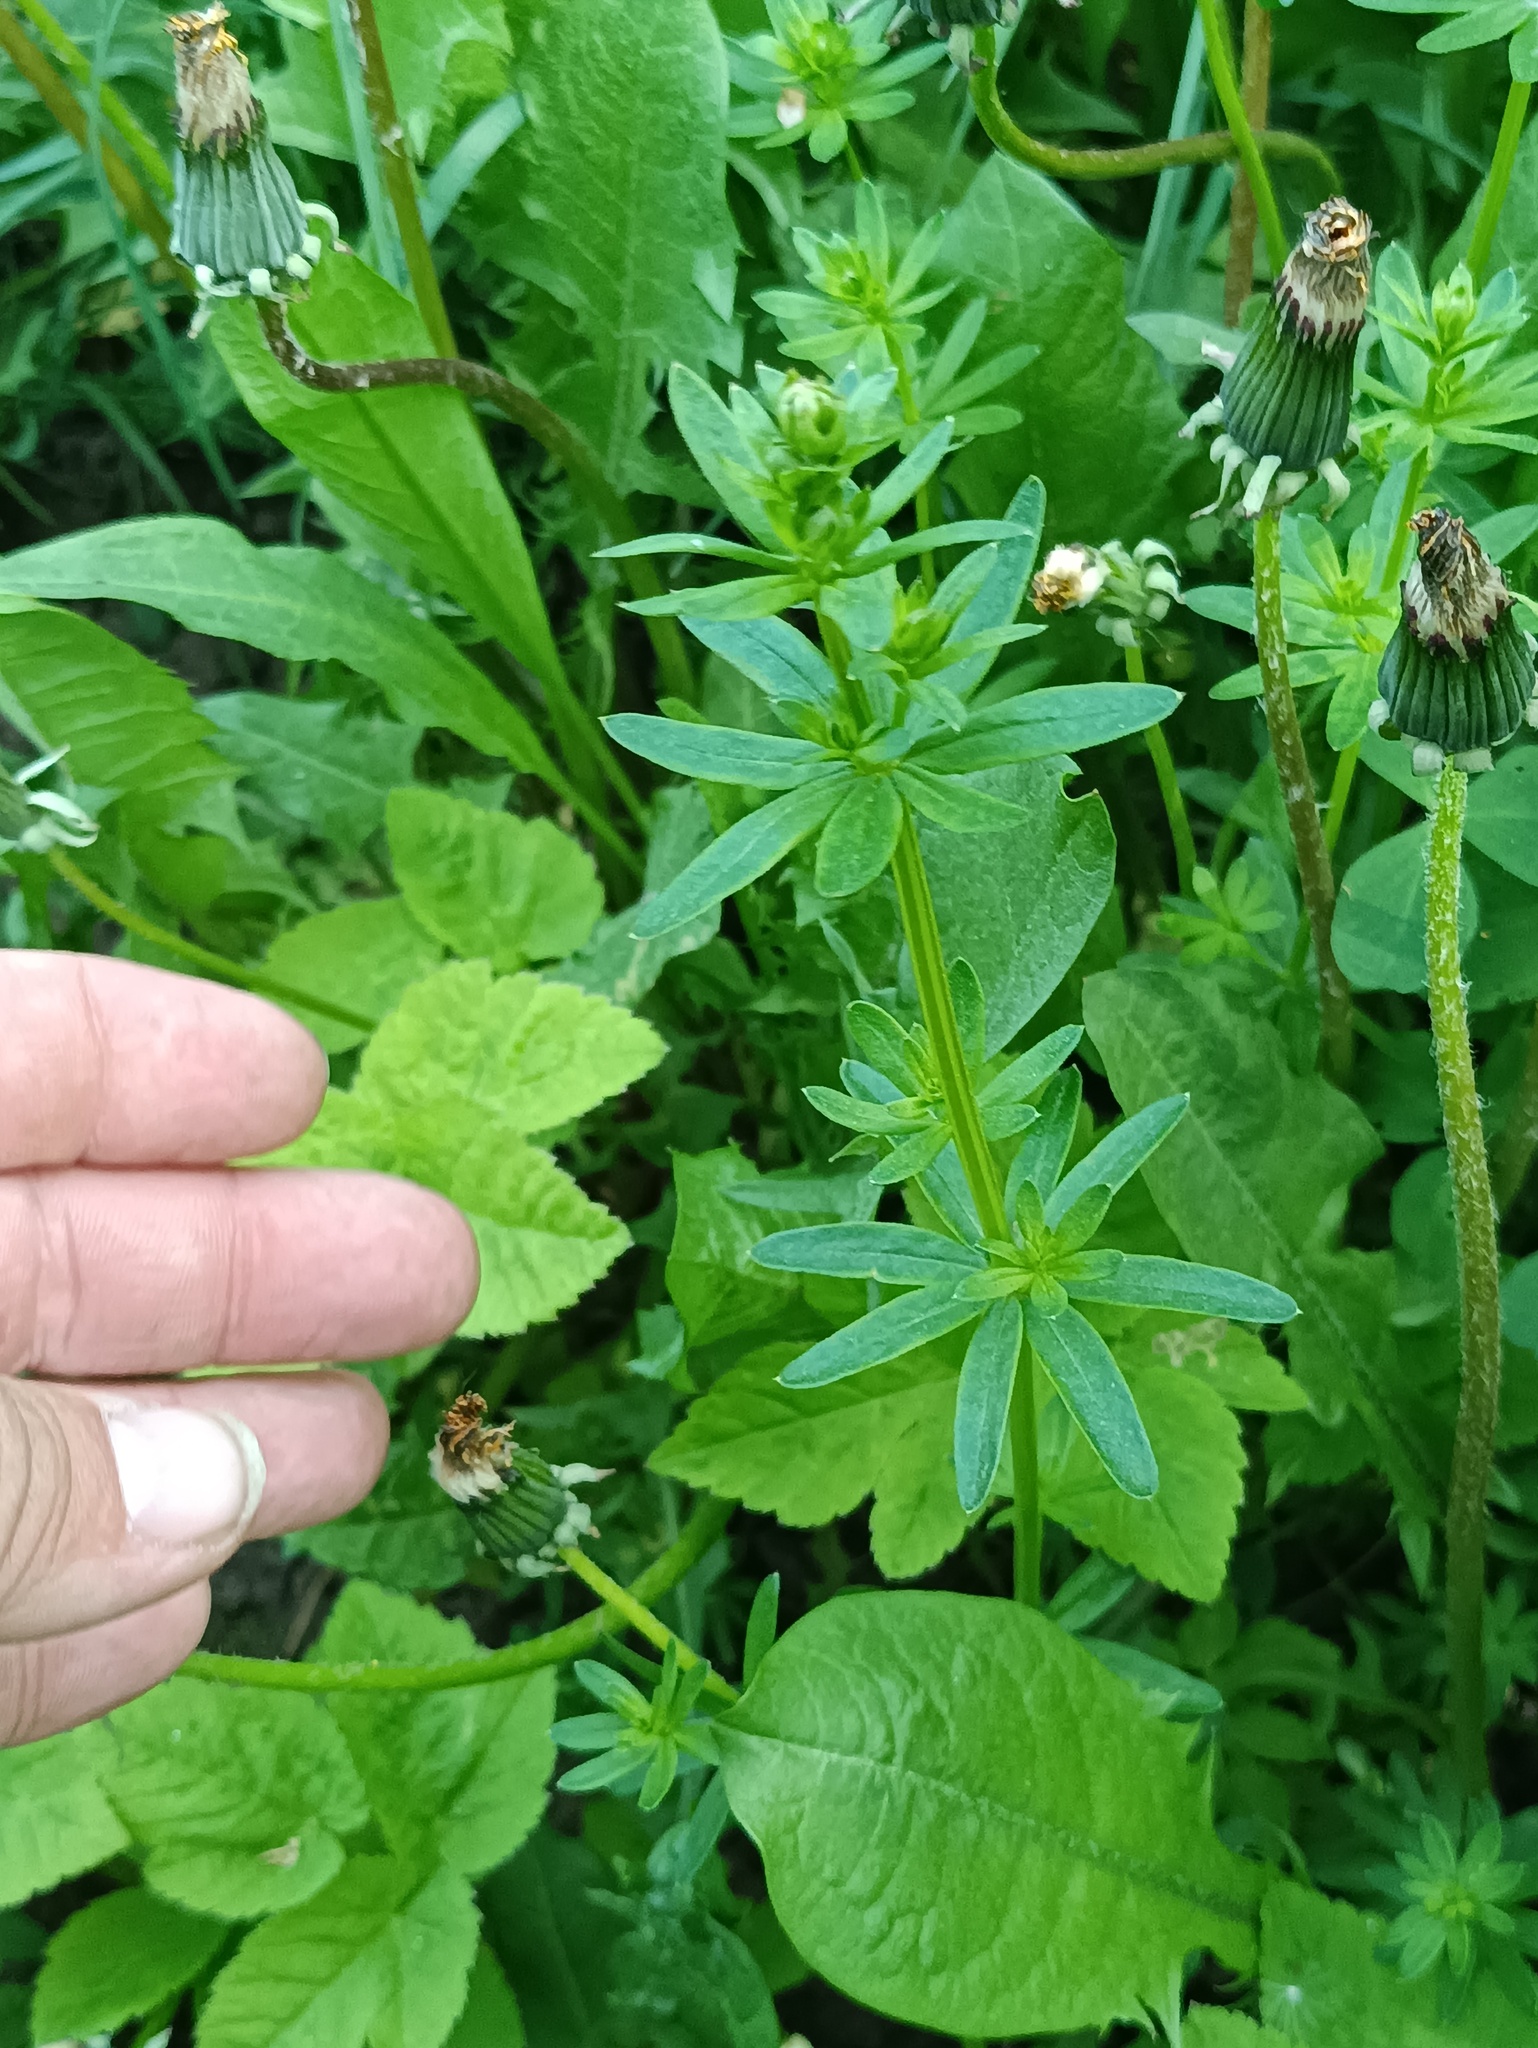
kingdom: Plantae
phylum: Tracheophyta
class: Magnoliopsida
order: Gentianales
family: Rubiaceae
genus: Galium
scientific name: Galium mollugo
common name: Hedge bedstraw
